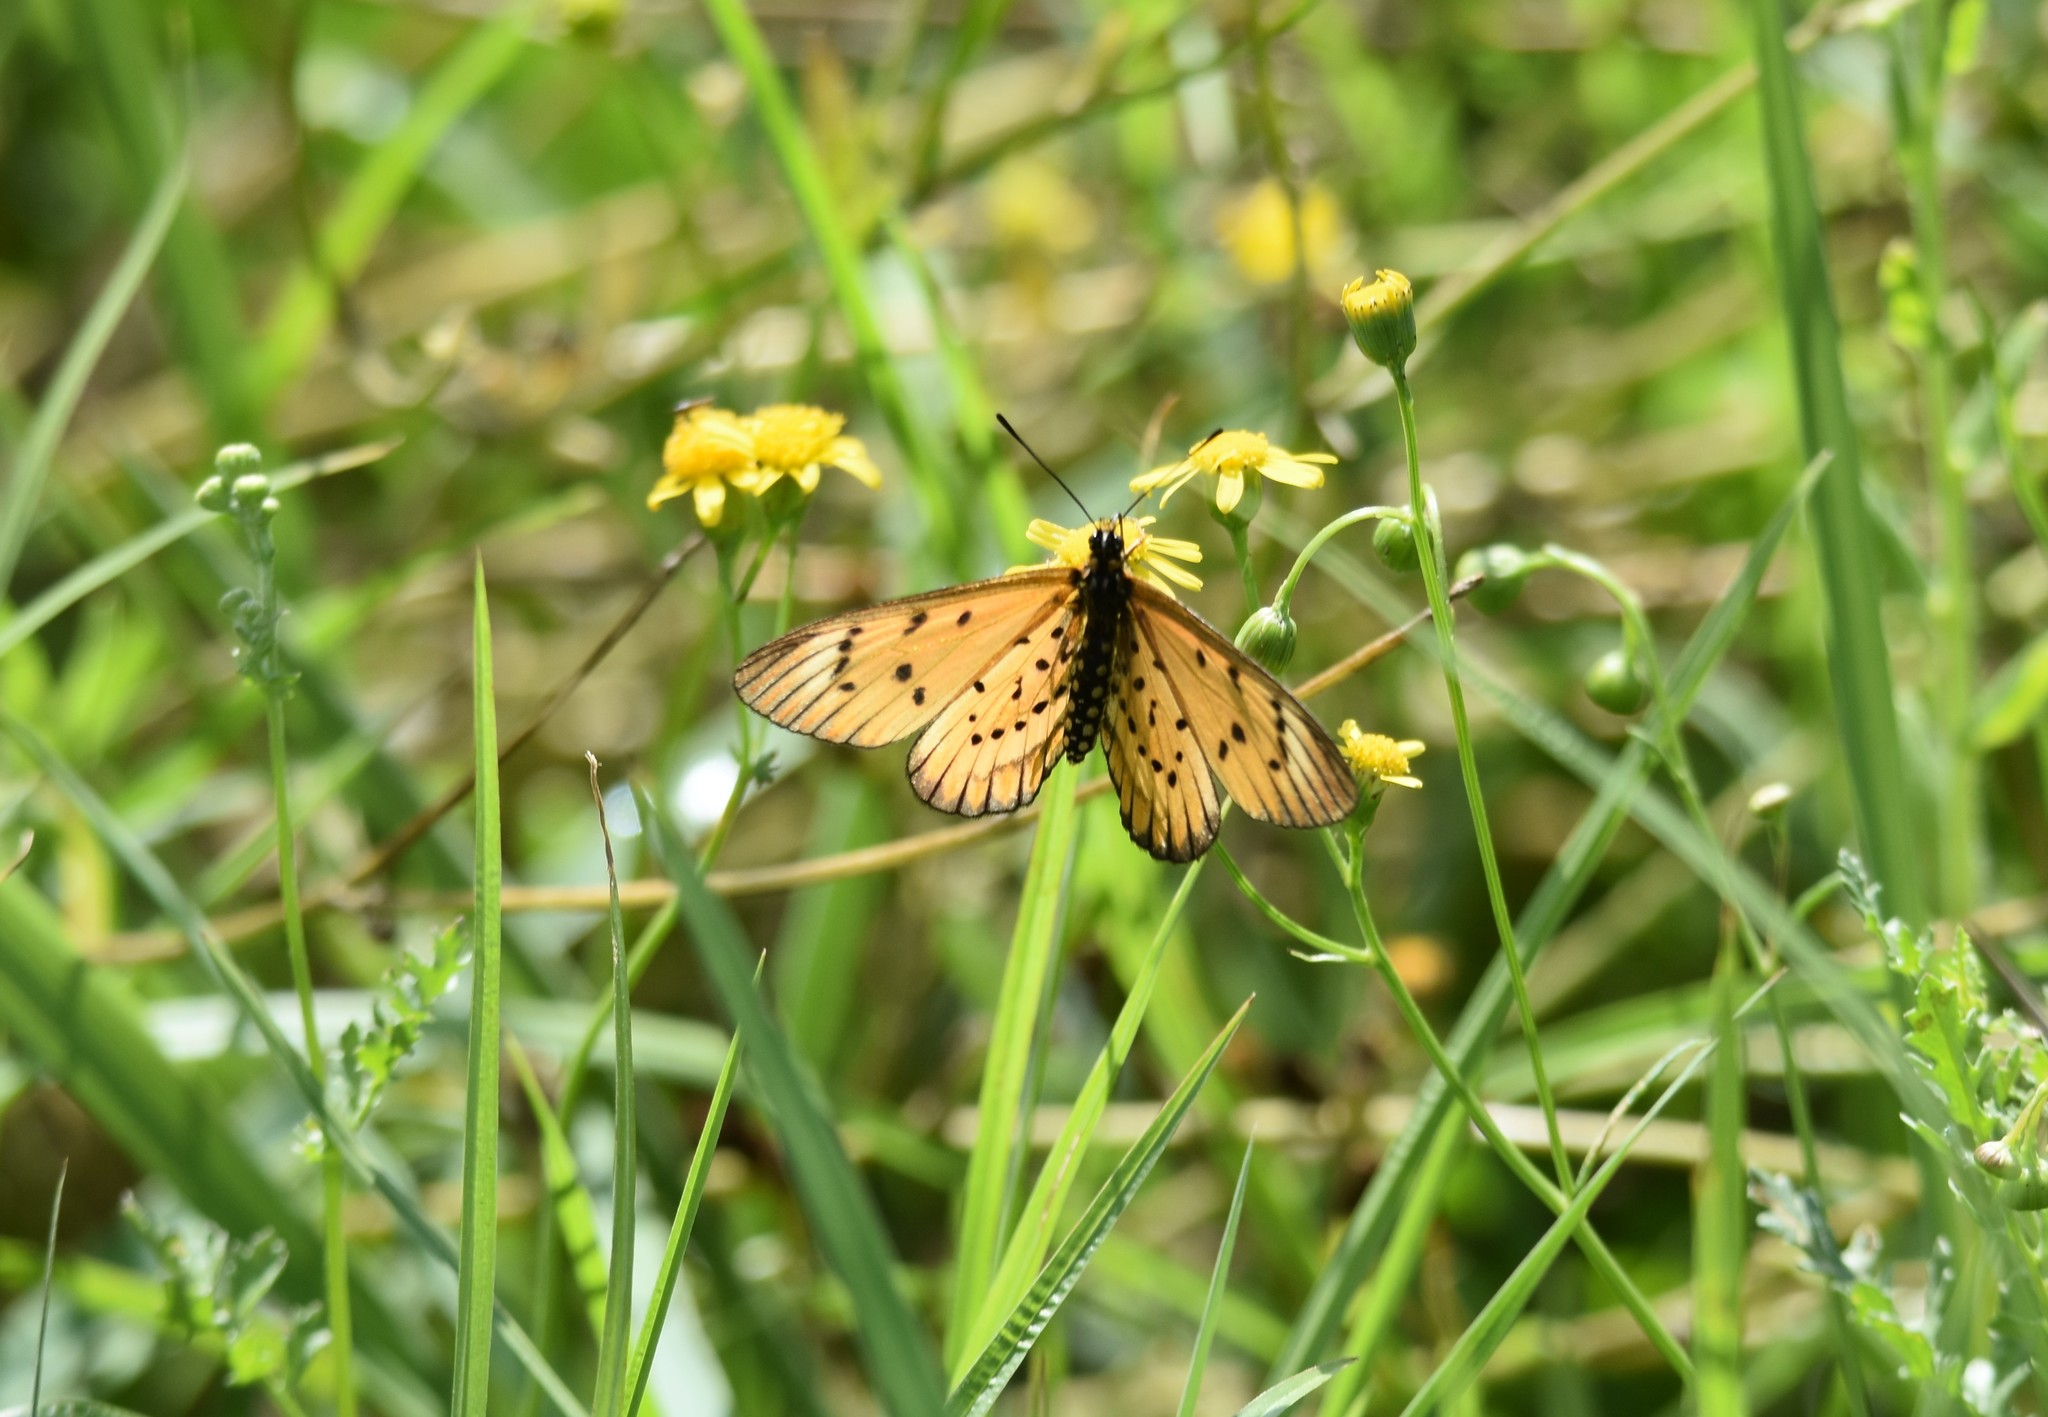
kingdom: Animalia
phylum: Arthropoda
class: Insecta
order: Lepidoptera
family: Nymphalidae
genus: Acraea
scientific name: Acraea rahira
